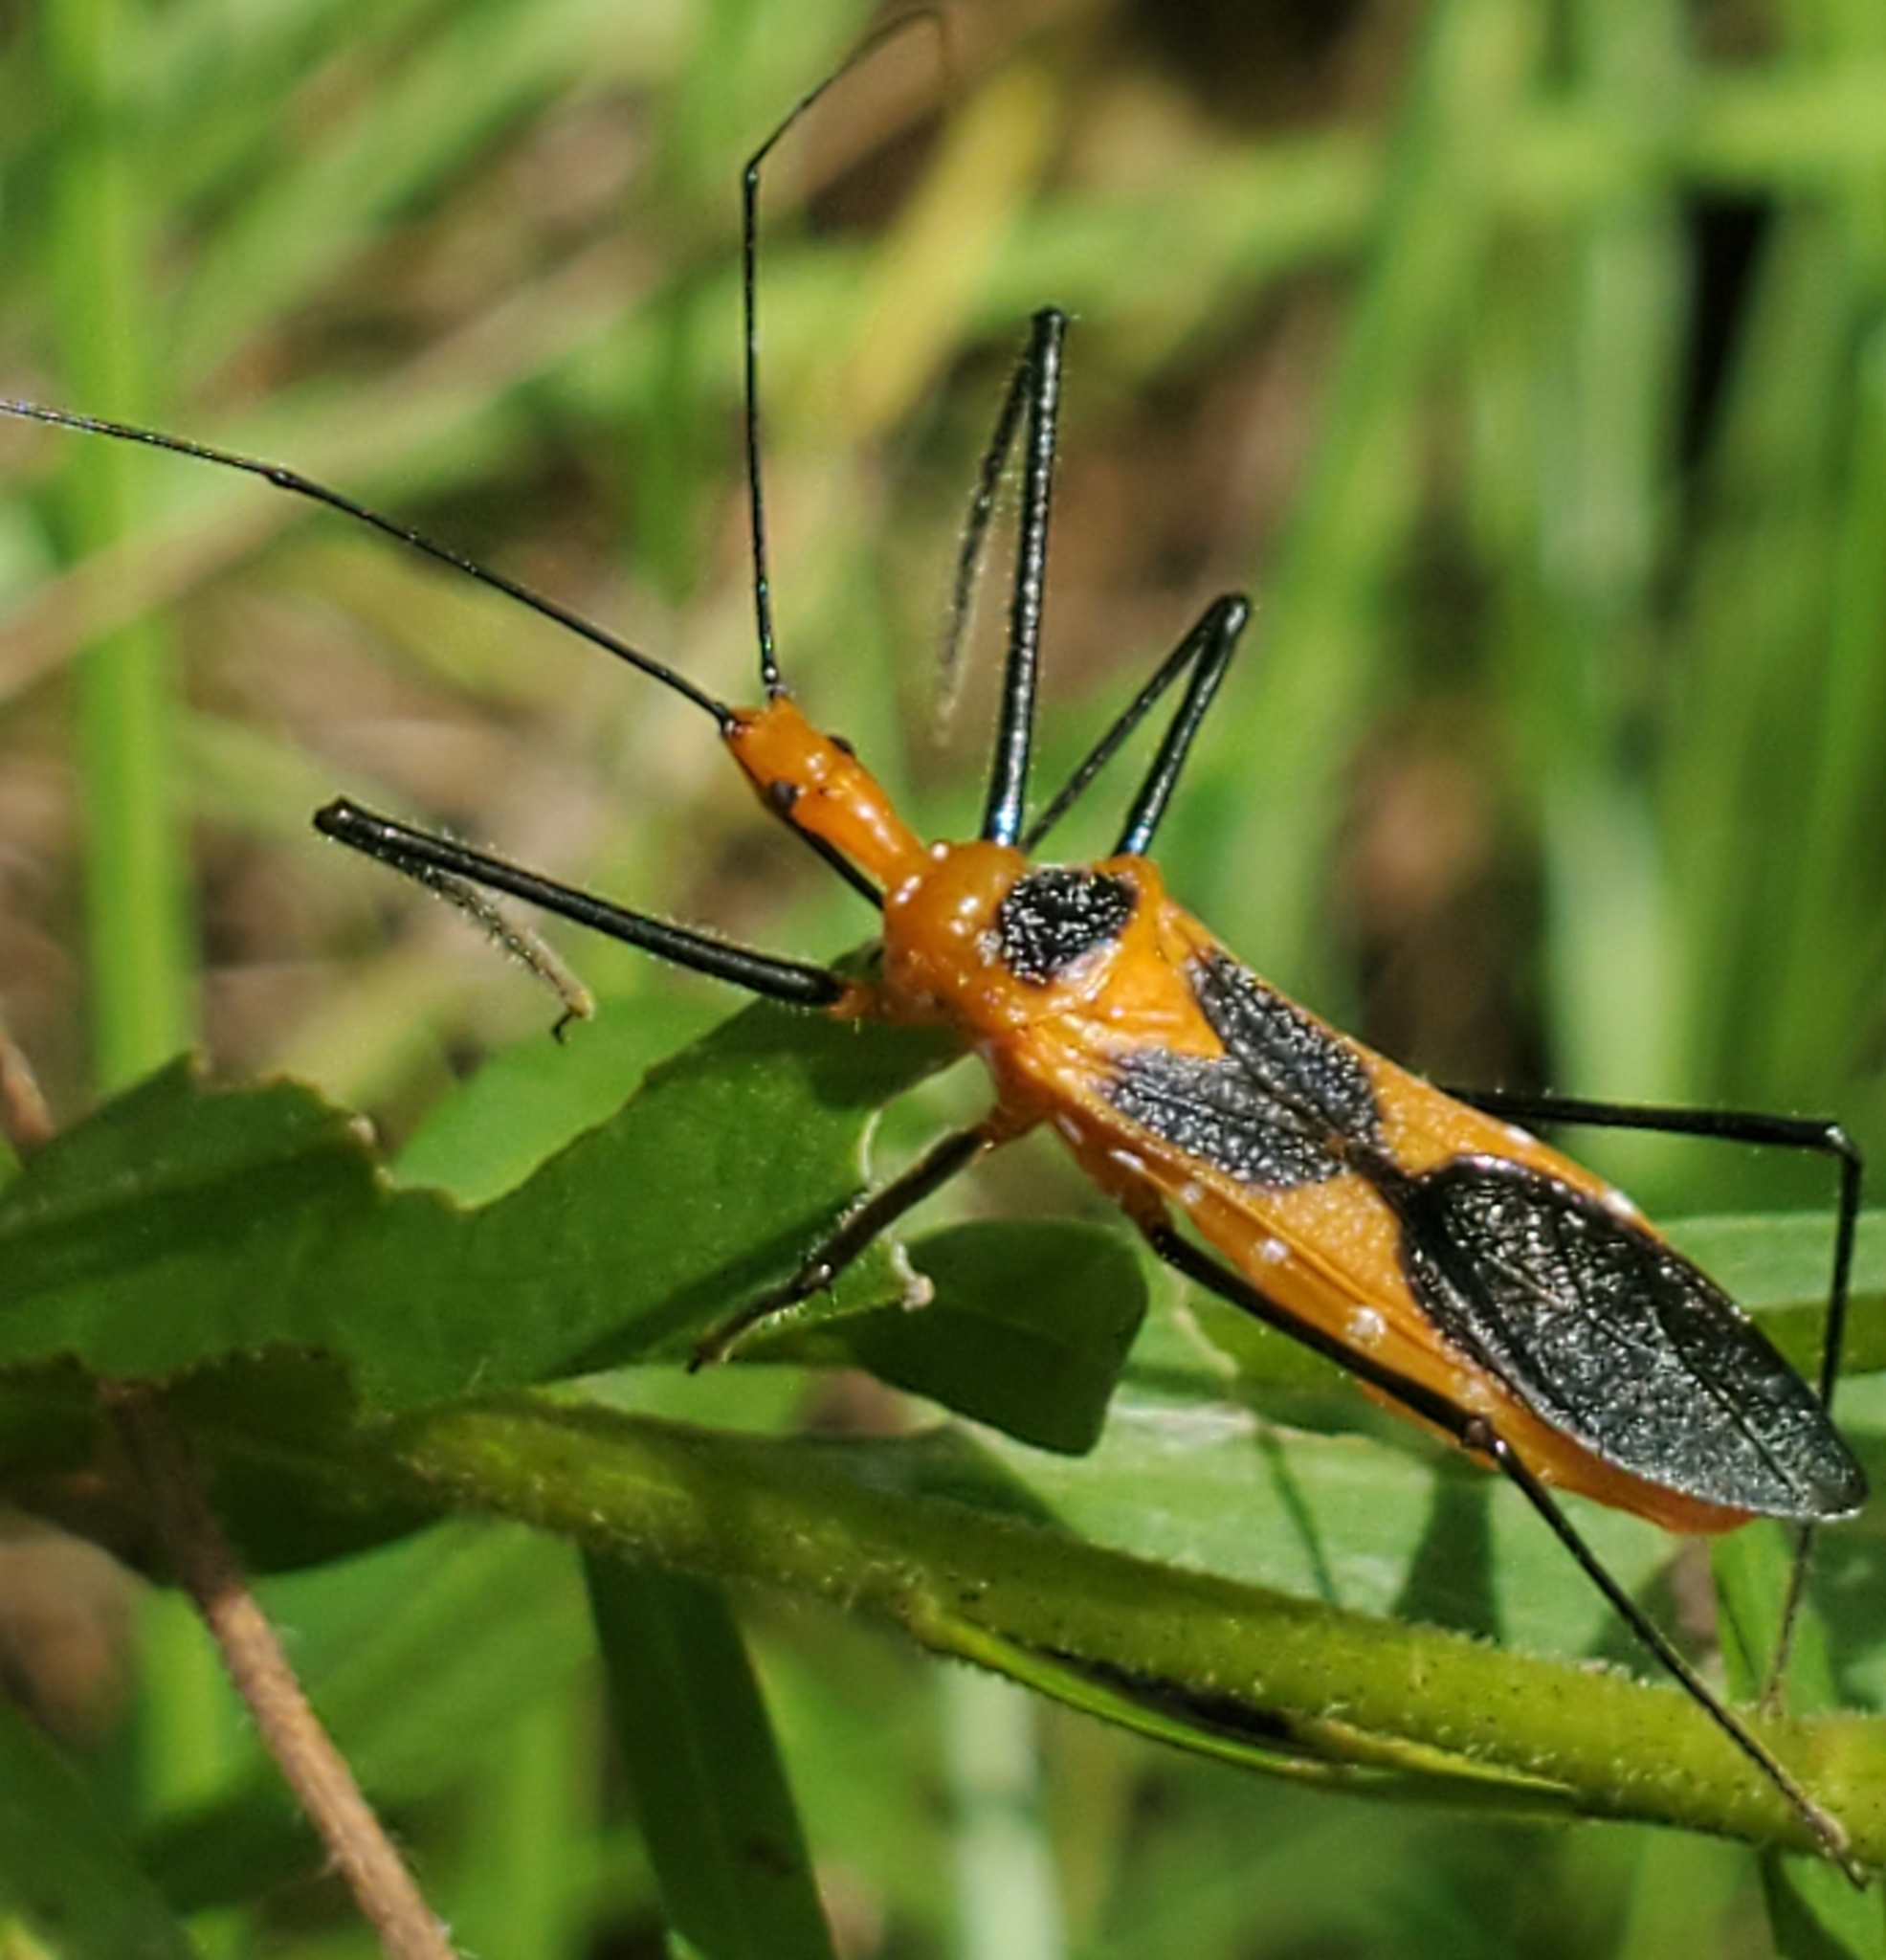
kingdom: Animalia
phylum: Arthropoda
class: Insecta
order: Hemiptera
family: Reduviidae
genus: Zelus
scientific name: Zelus longipes
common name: Milkweed assassin bug
